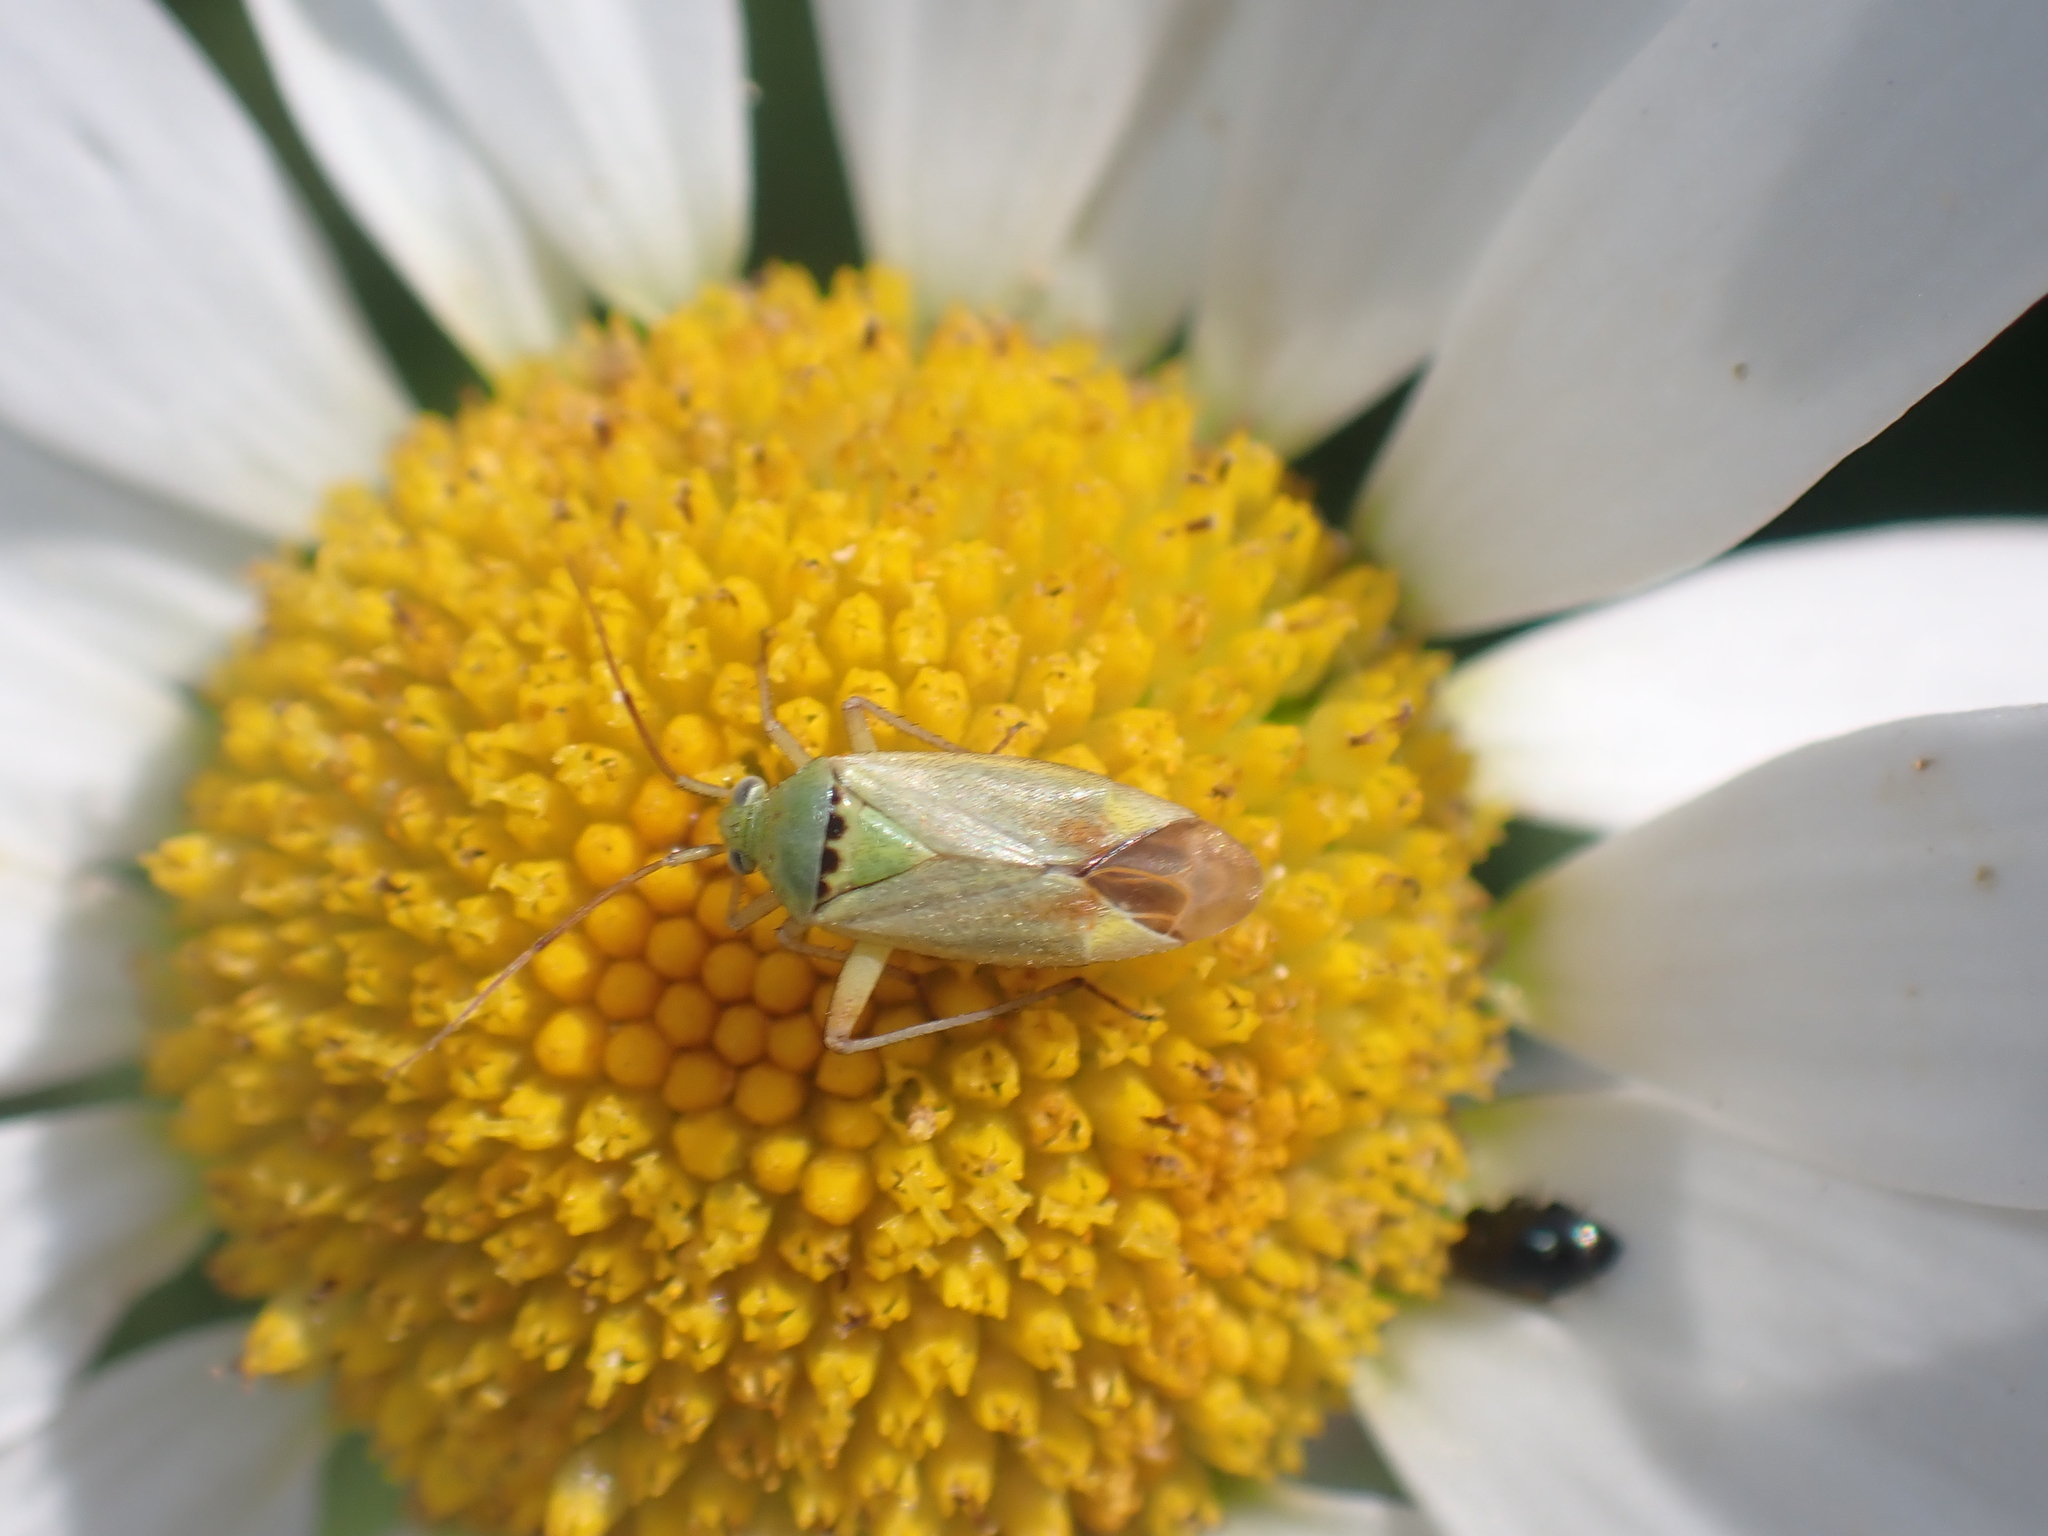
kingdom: Animalia
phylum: Arthropoda
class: Insecta
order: Hemiptera
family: Miridae
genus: Closterotomus
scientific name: Closterotomus norvegicus
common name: Plant bug
